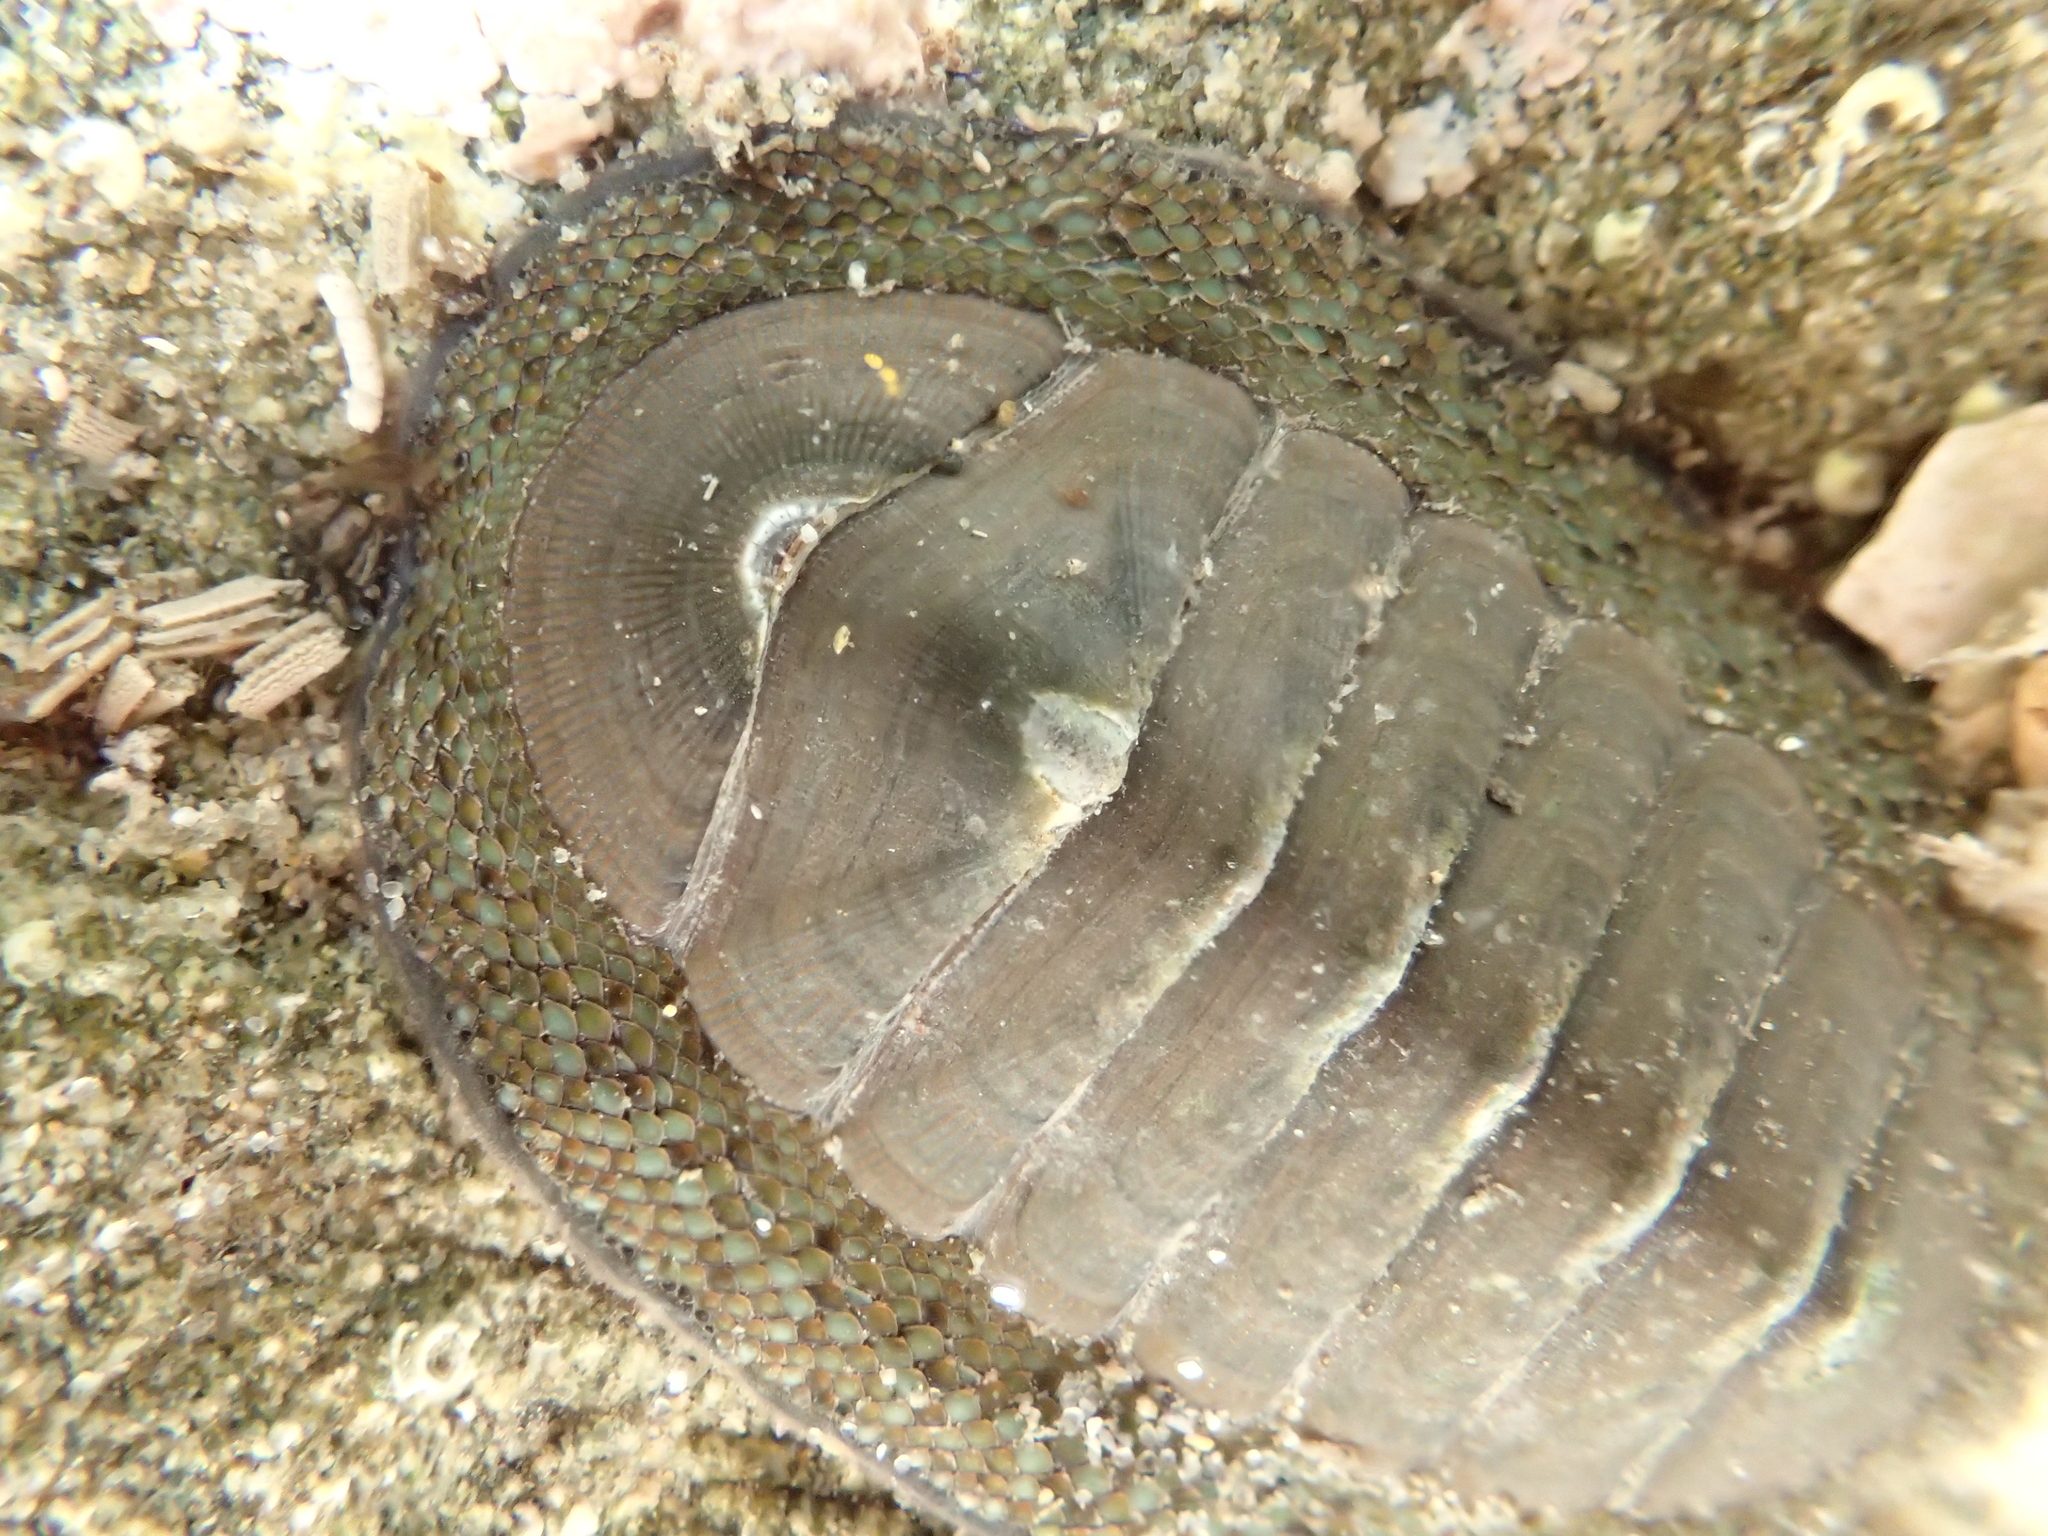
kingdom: Animalia
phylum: Mollusca
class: Polyplacophora
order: Chitonida
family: Chitonidae
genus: Chiton
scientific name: Chiton glaucus
